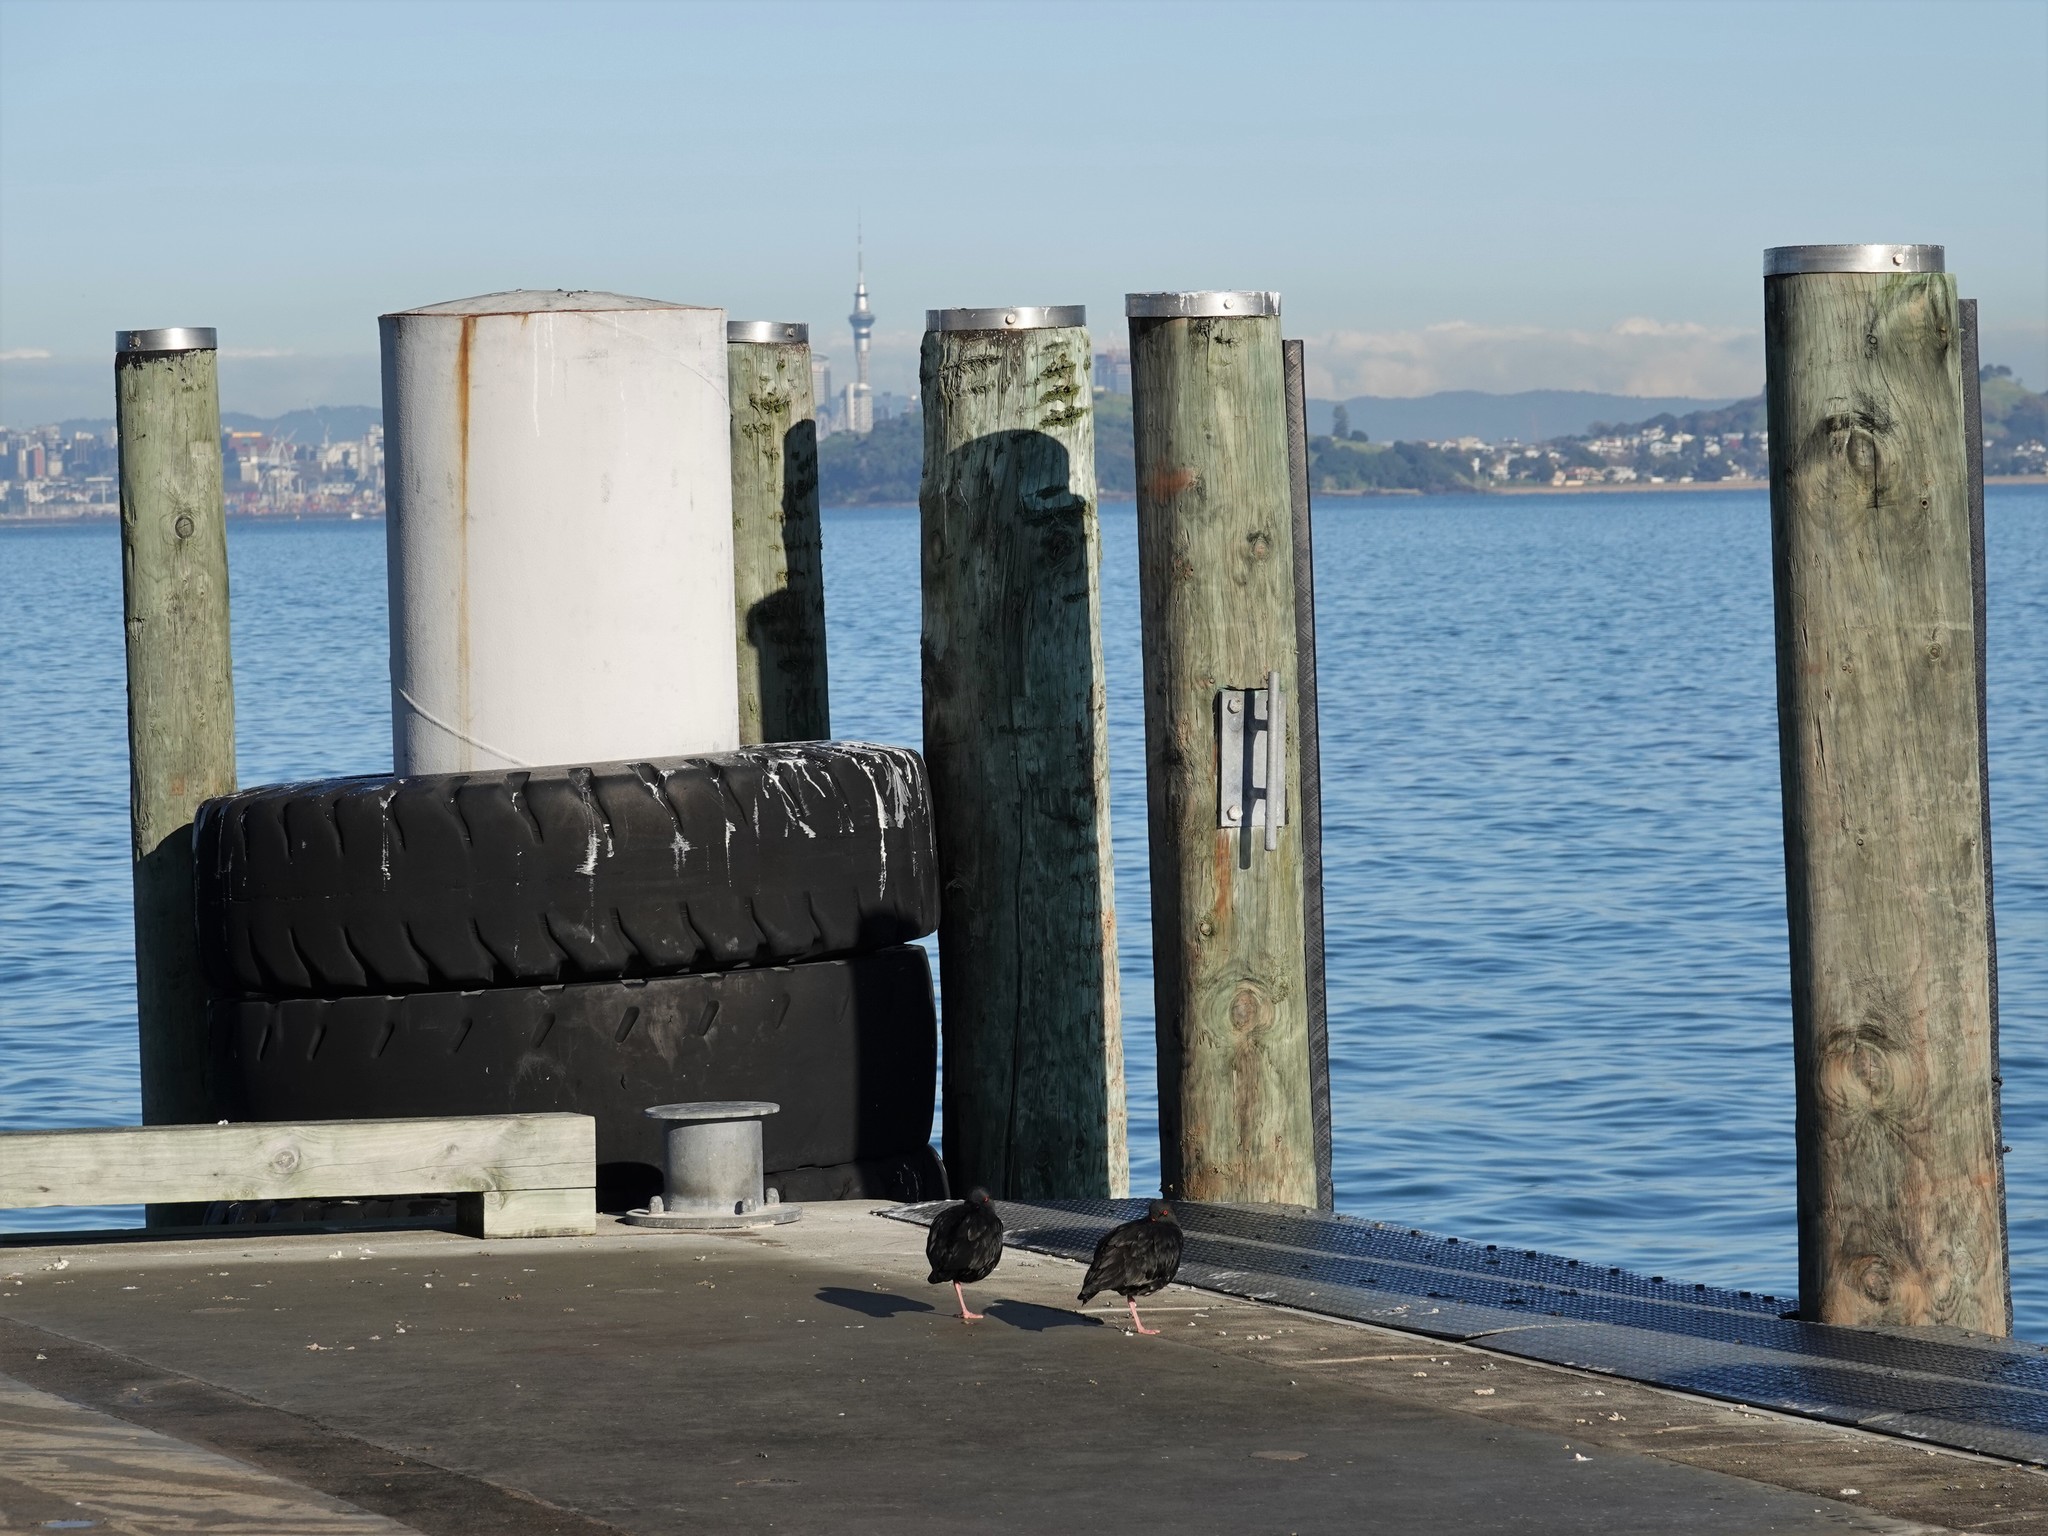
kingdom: Animalia
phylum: Chordata
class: Aves
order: Charadriiformes
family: Haematopodidae
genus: Haematopus
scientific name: Haematopus unicolor
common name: Variable oystercatcher
